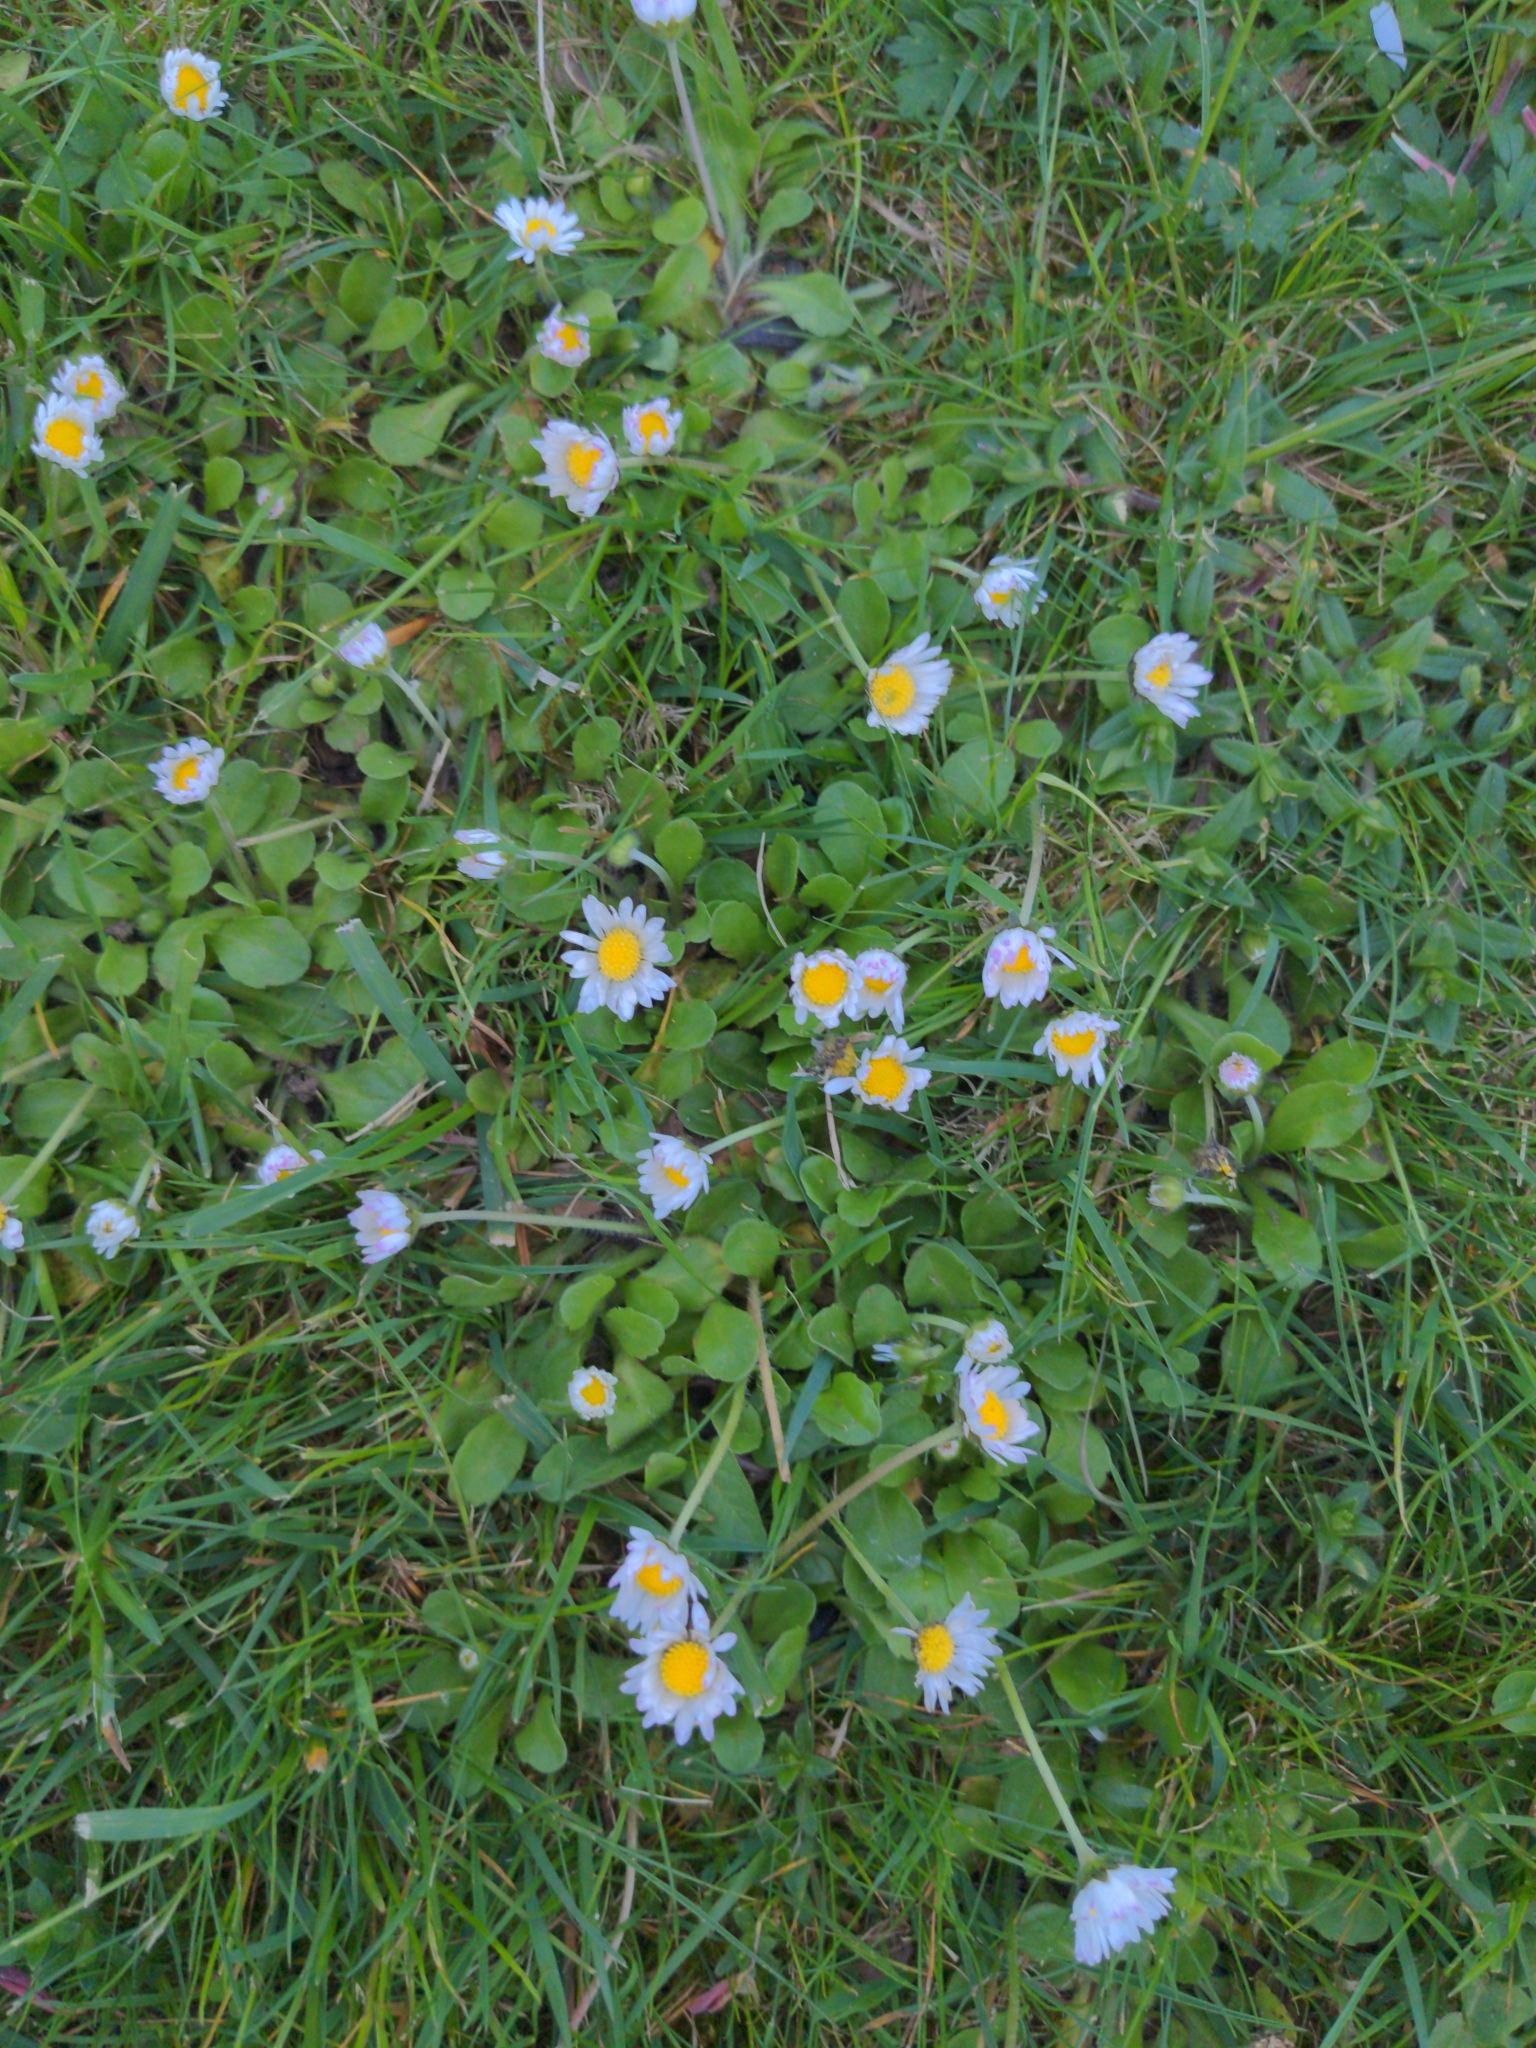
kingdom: Plantae
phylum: Tracheophyta
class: Magnoliopsida
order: Asterales
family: Asteraceae
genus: Bellis
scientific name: Bellis perennis
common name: Lawndaisy
